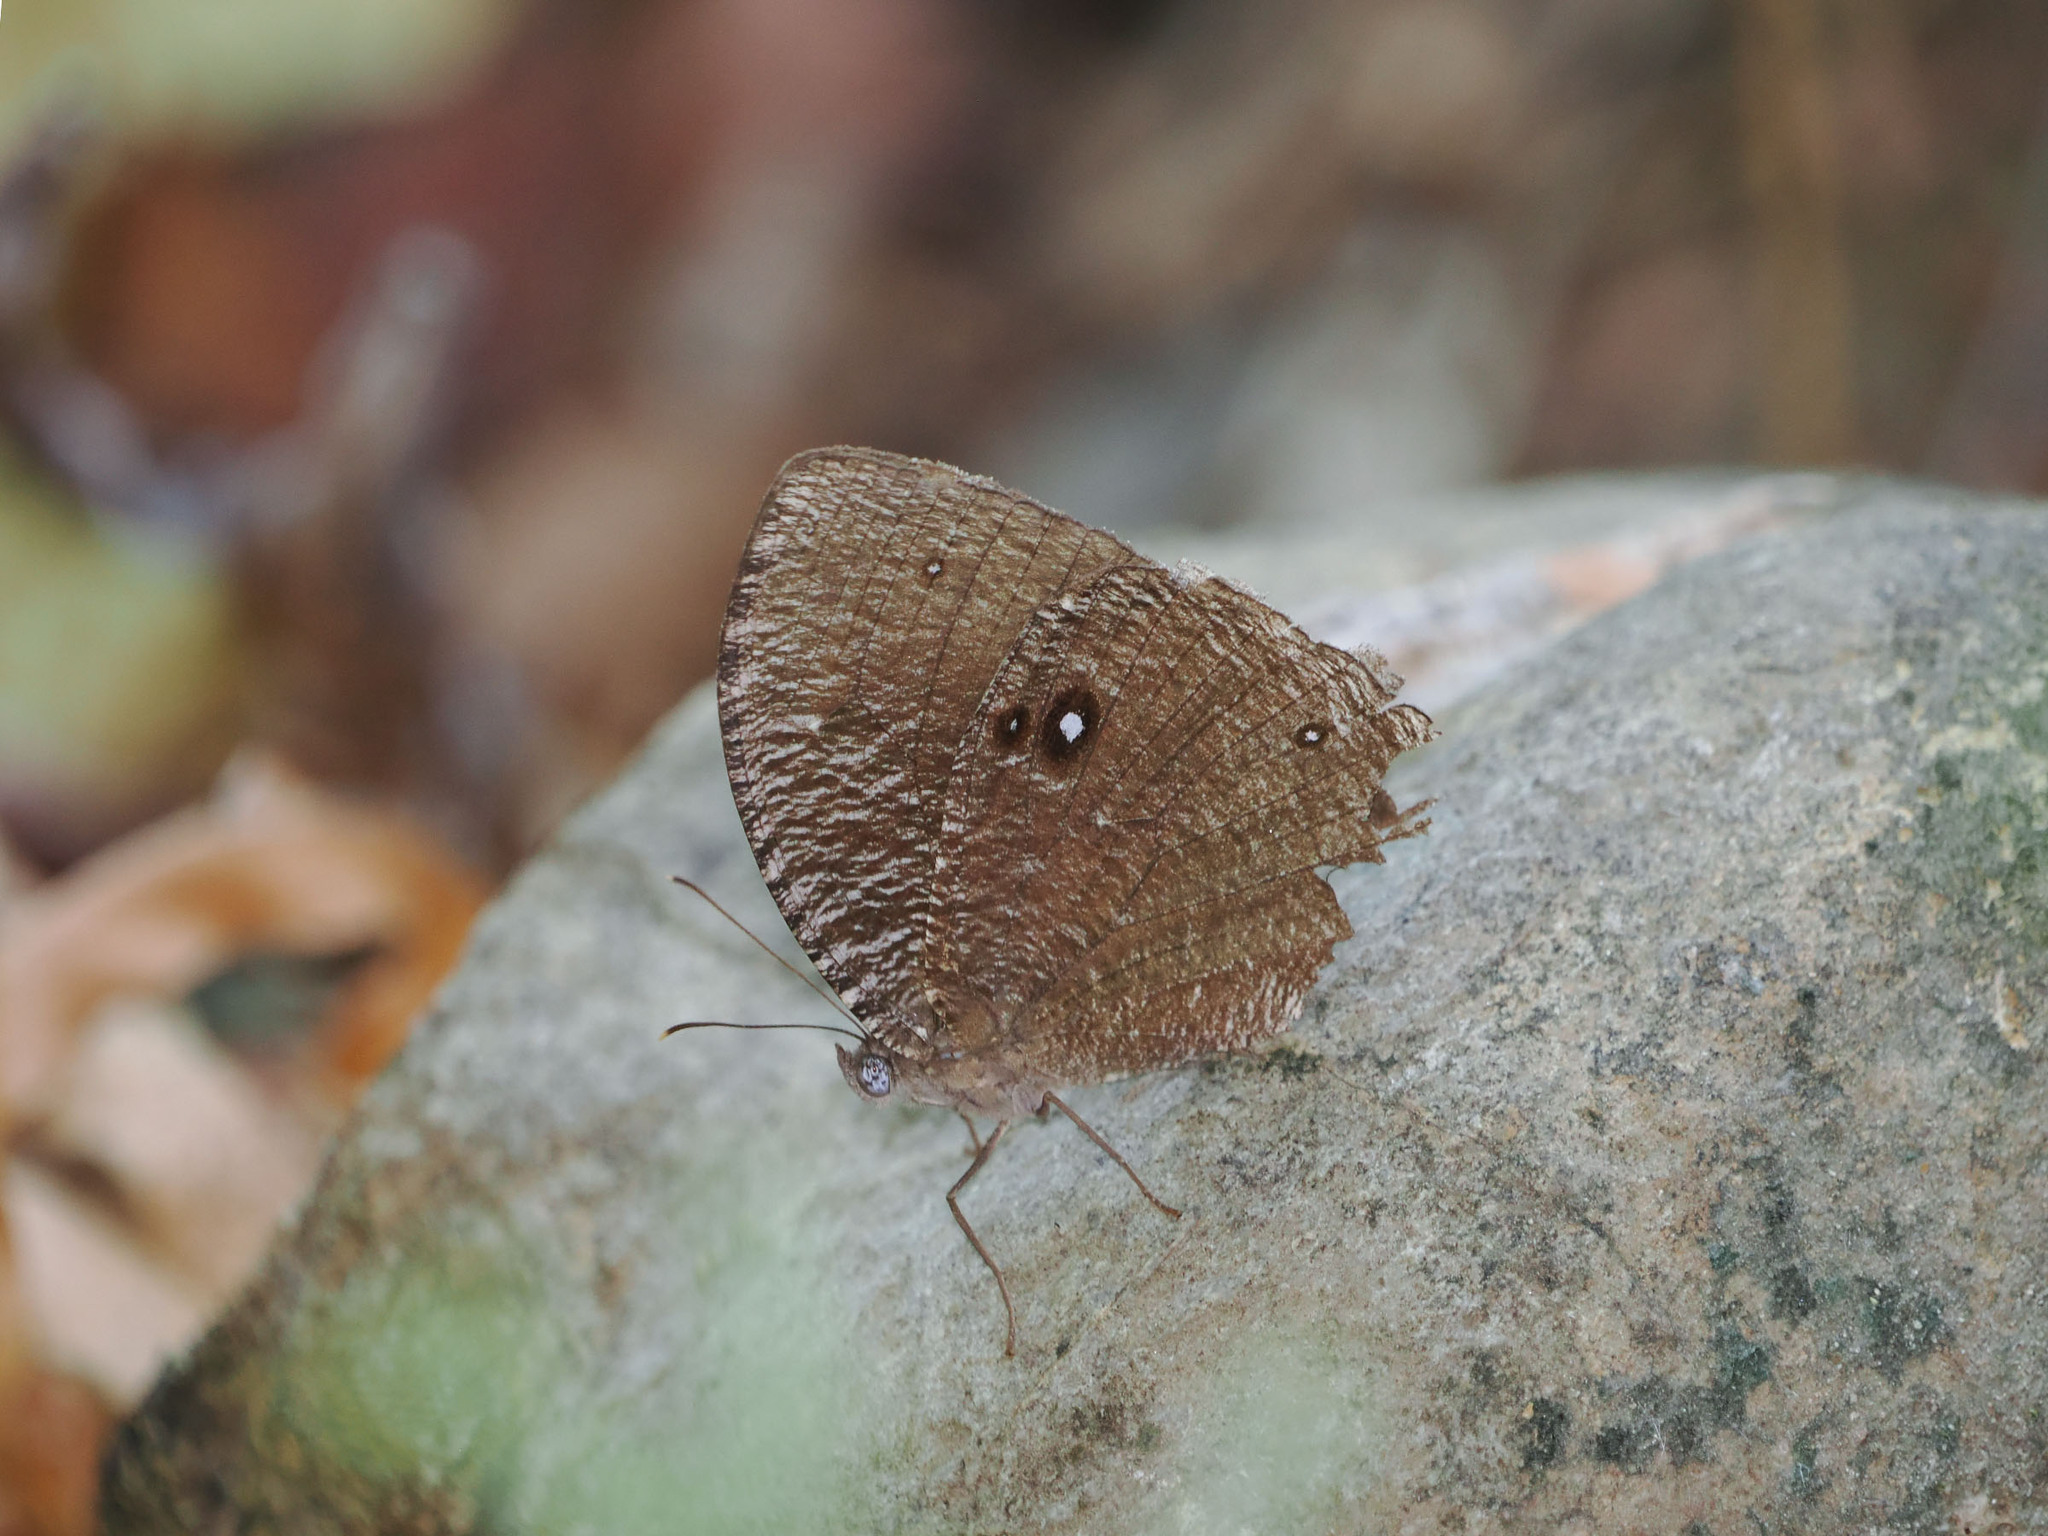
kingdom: Animalia
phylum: Arthropoda
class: Insecta
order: Lepidoptera
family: Nymphalidae
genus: Bletogona
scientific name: Bletogona mycalesis
